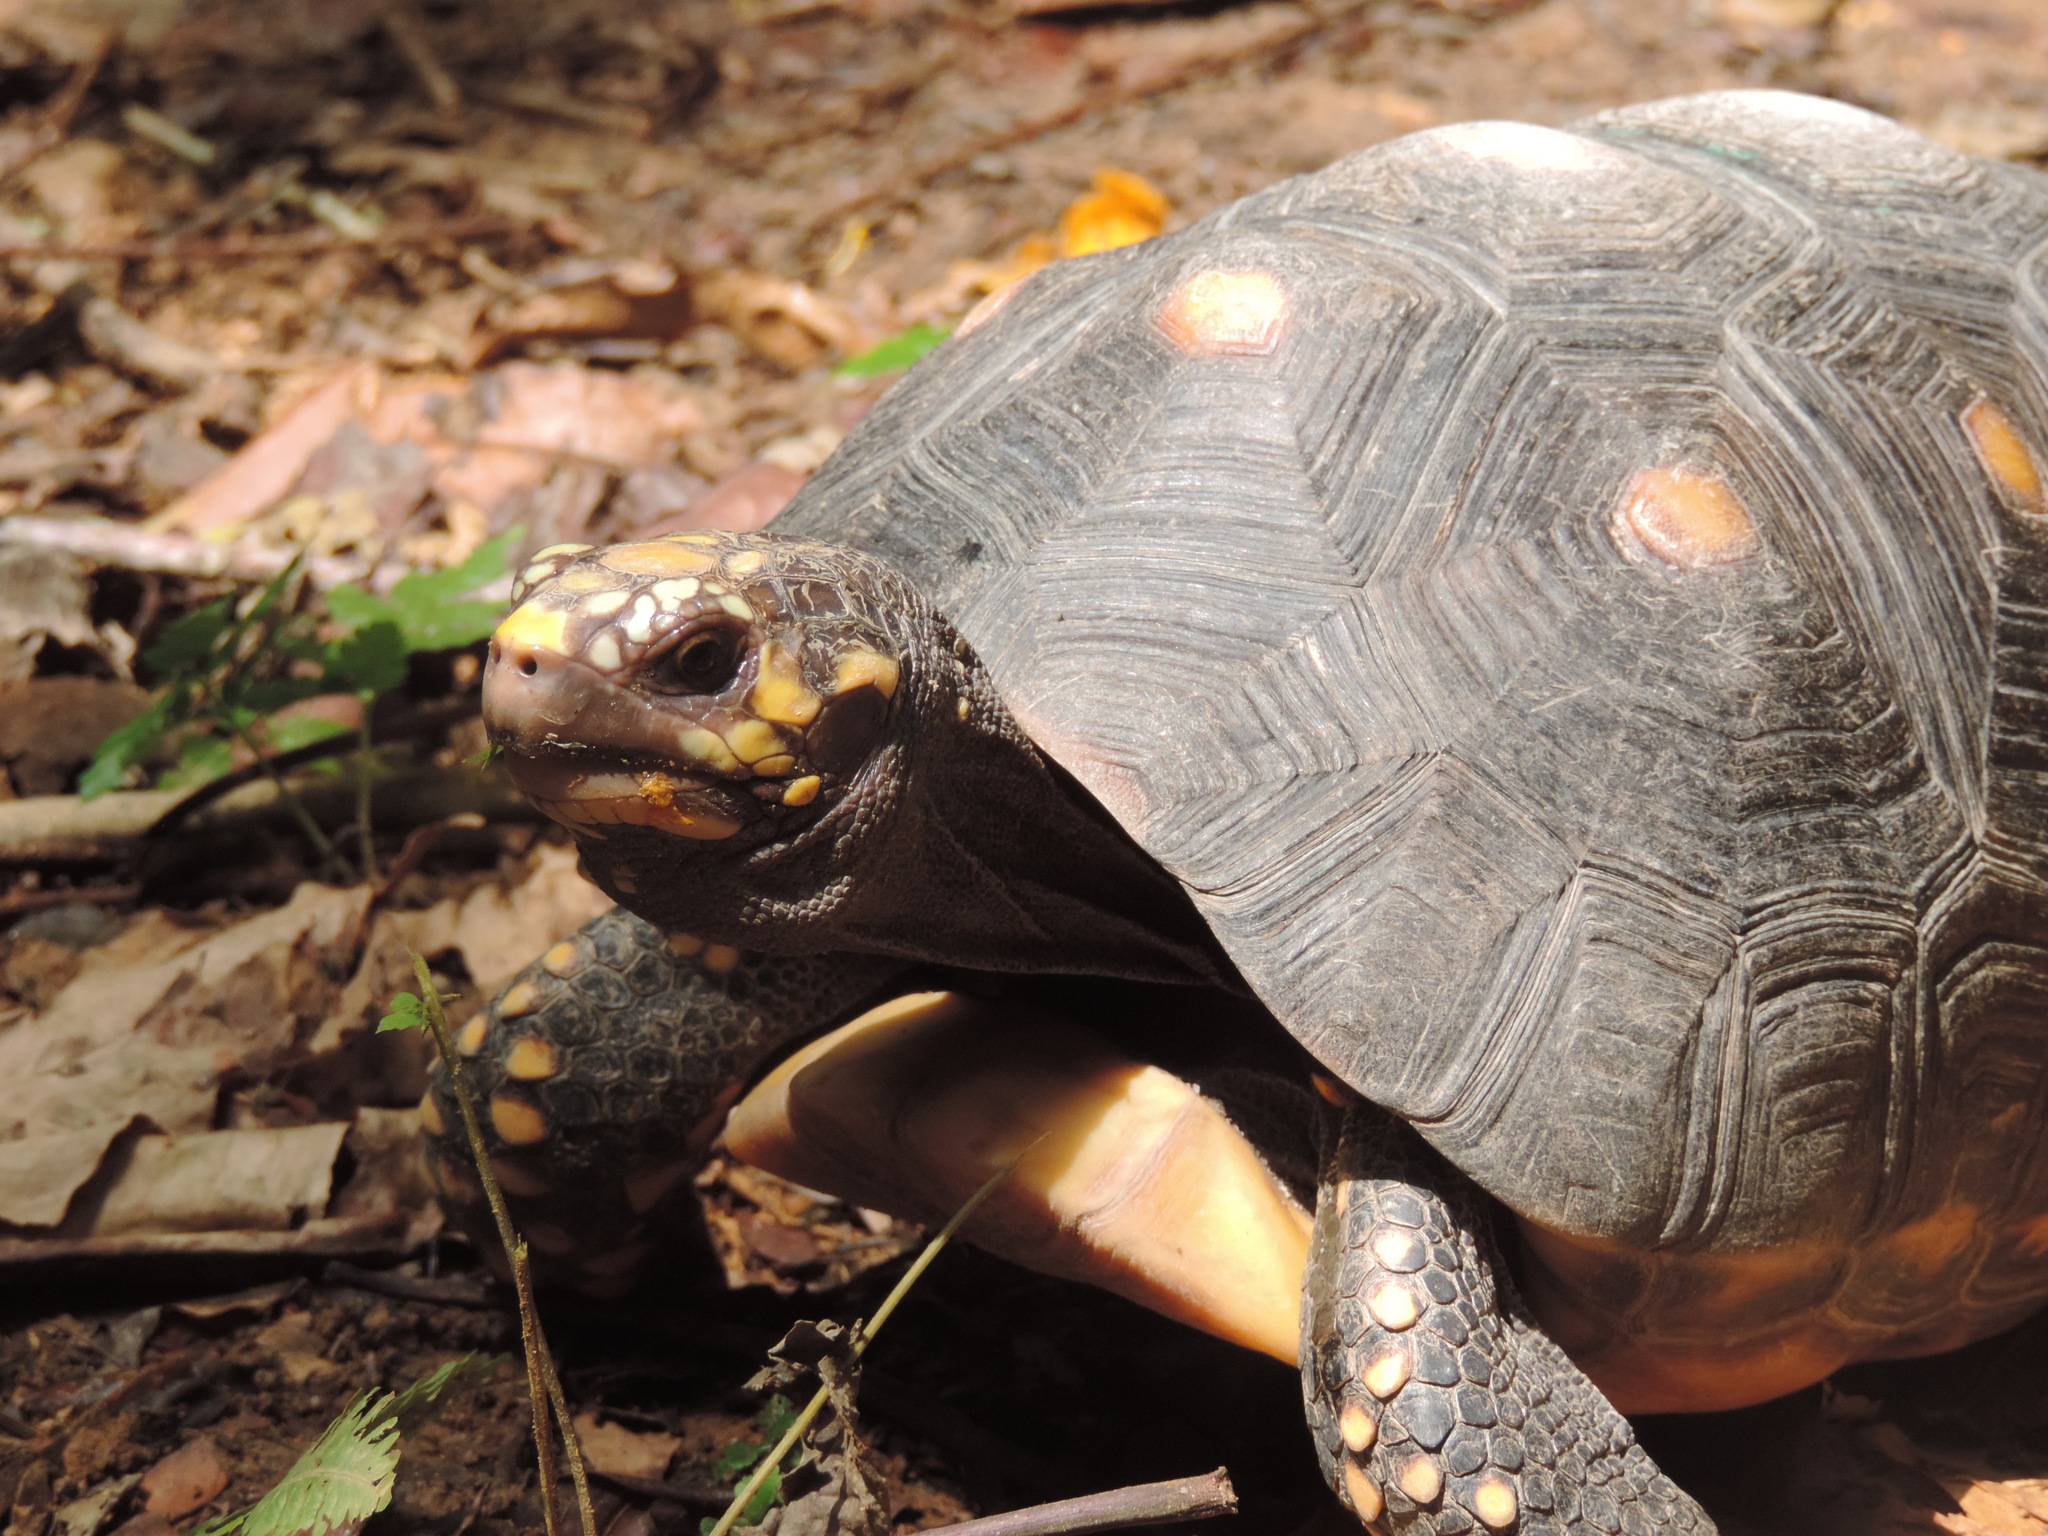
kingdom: Animalia
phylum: Chordata
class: Testudines
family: Testudinidae
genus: Chelonoidis
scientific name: Chelonoidis carbonarius
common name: Red-footed tortoise
